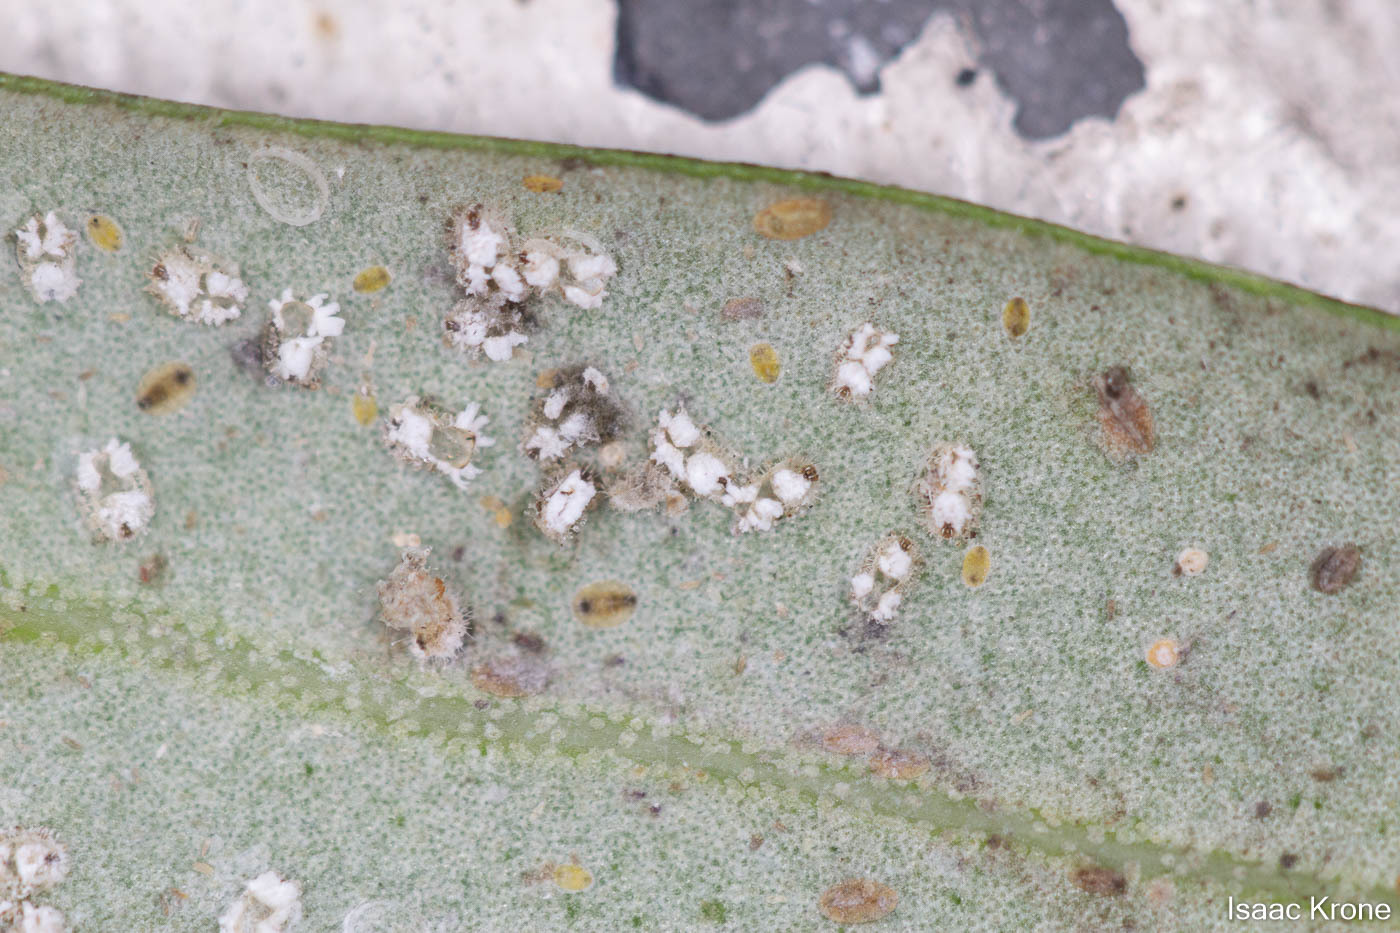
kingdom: Animalia
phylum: Arthropoda
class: Insecta
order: Hemiptera
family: Aleyrodidae
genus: Siphoninus
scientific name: Siphoninus phillyreae
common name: Ash whitefly
